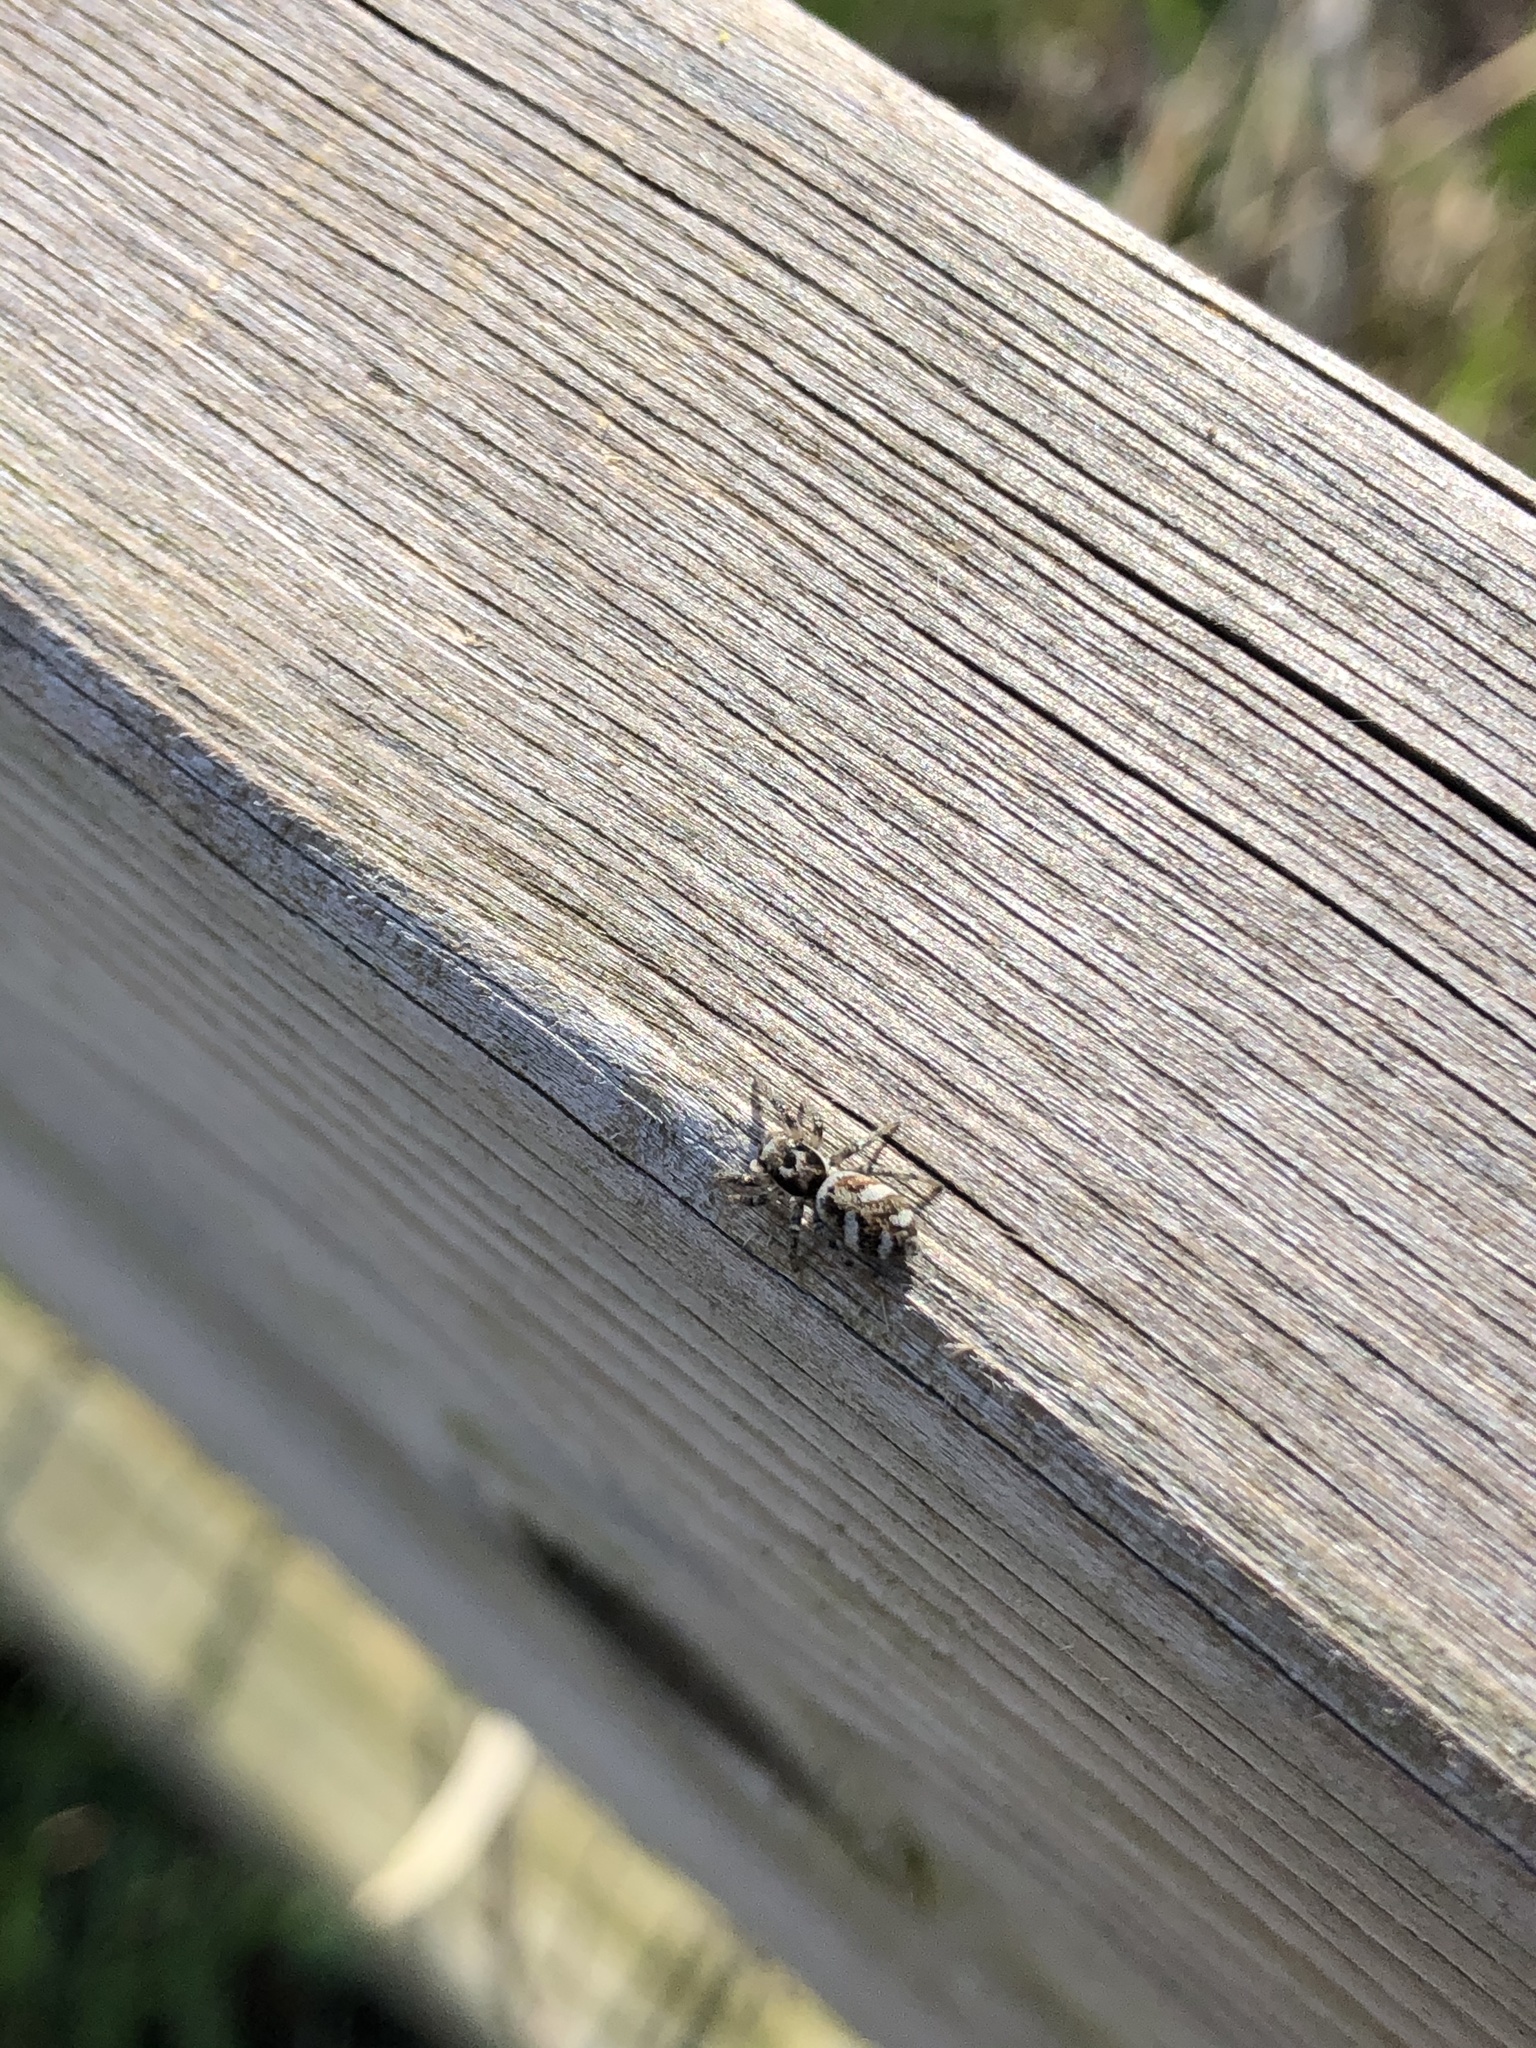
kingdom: Animalia
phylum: Arthropoda
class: Arachnida
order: Araneae
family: Salticidae
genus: Salticus
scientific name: Salticus scenicus
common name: Zebra jumper
